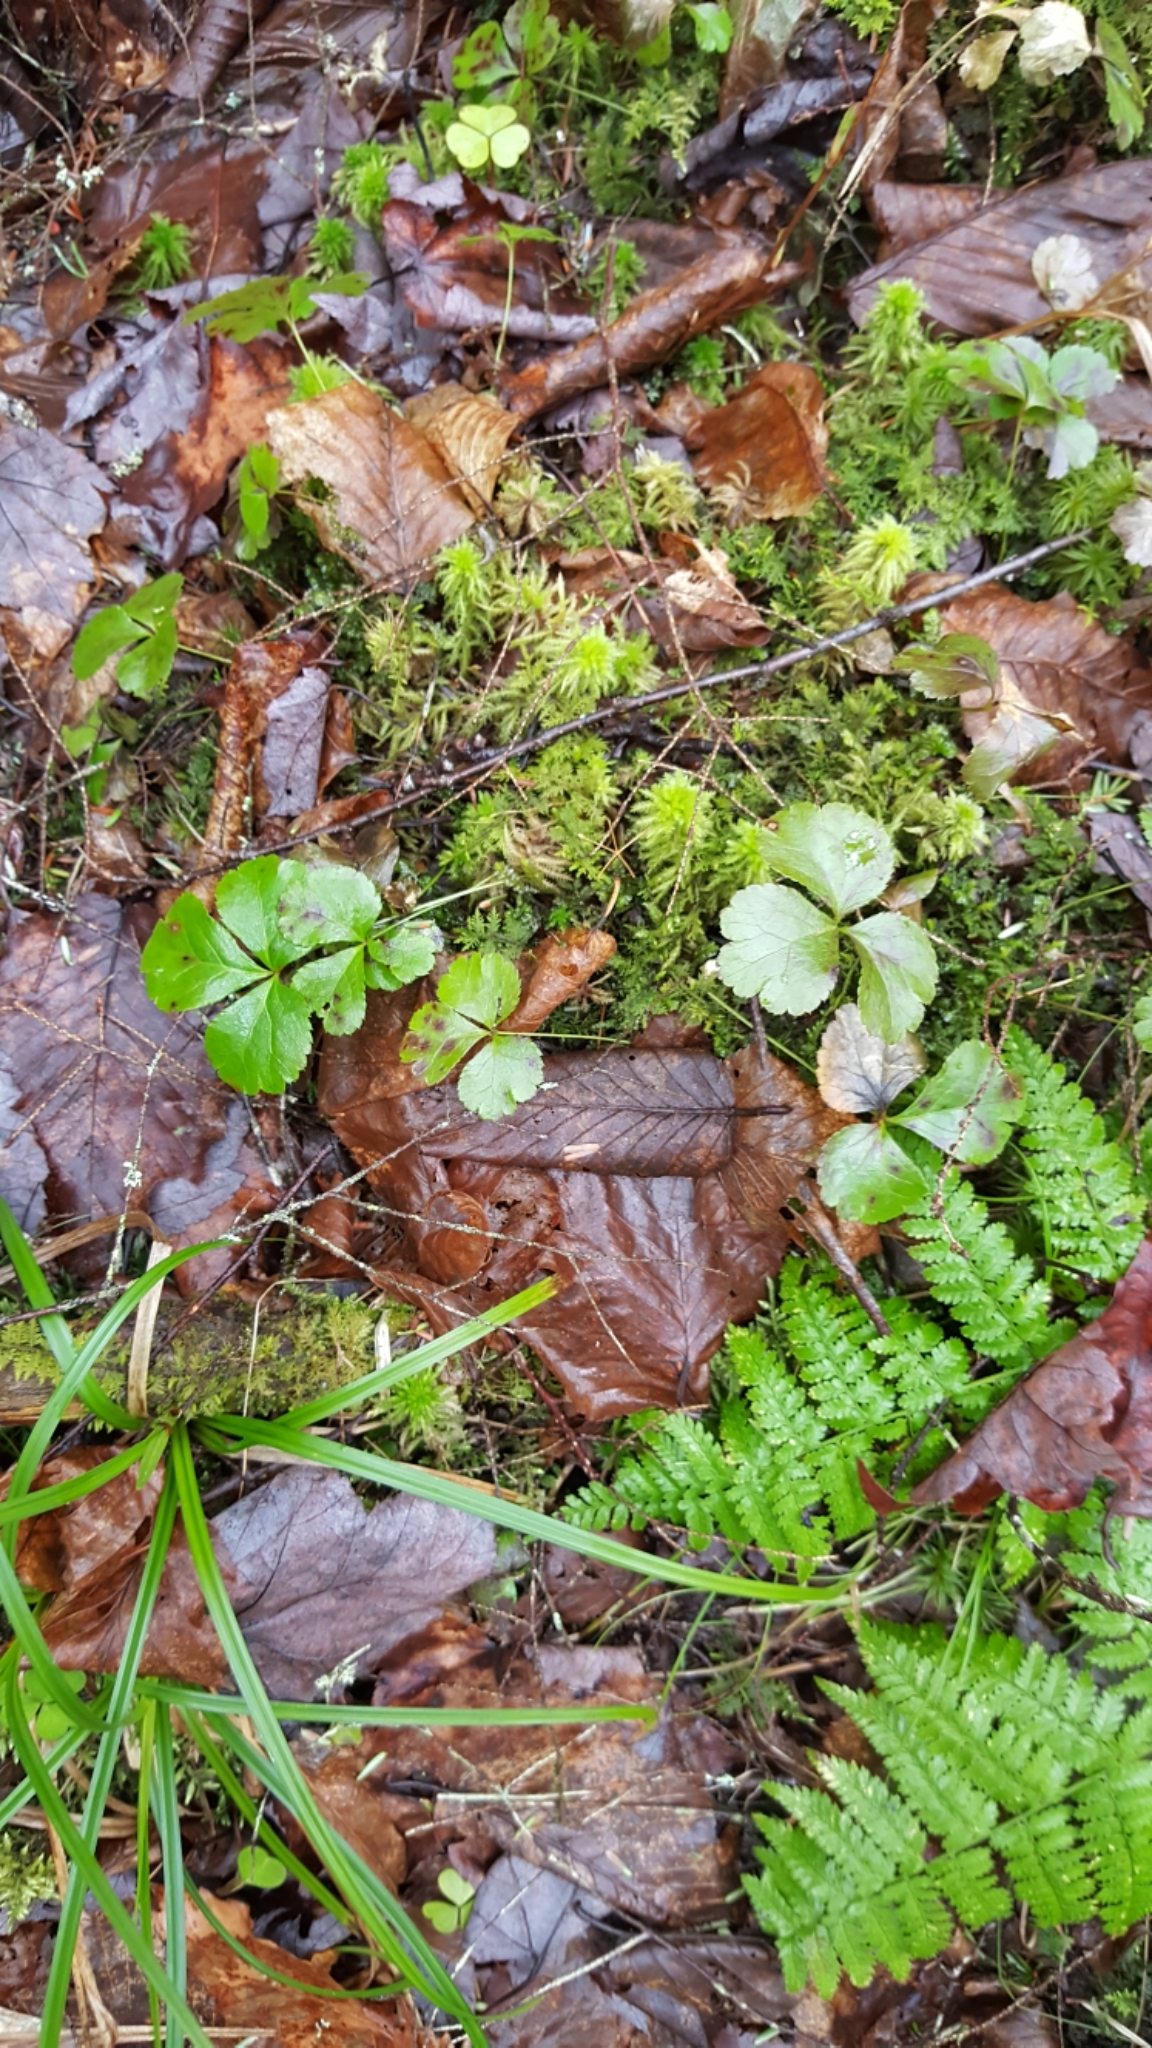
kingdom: Plantae
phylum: Tracheophyta
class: Magnoliopsida
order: Ranunculales
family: Ranunculaceae
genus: Coptis
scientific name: Coptis trifolia
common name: Canker-root
